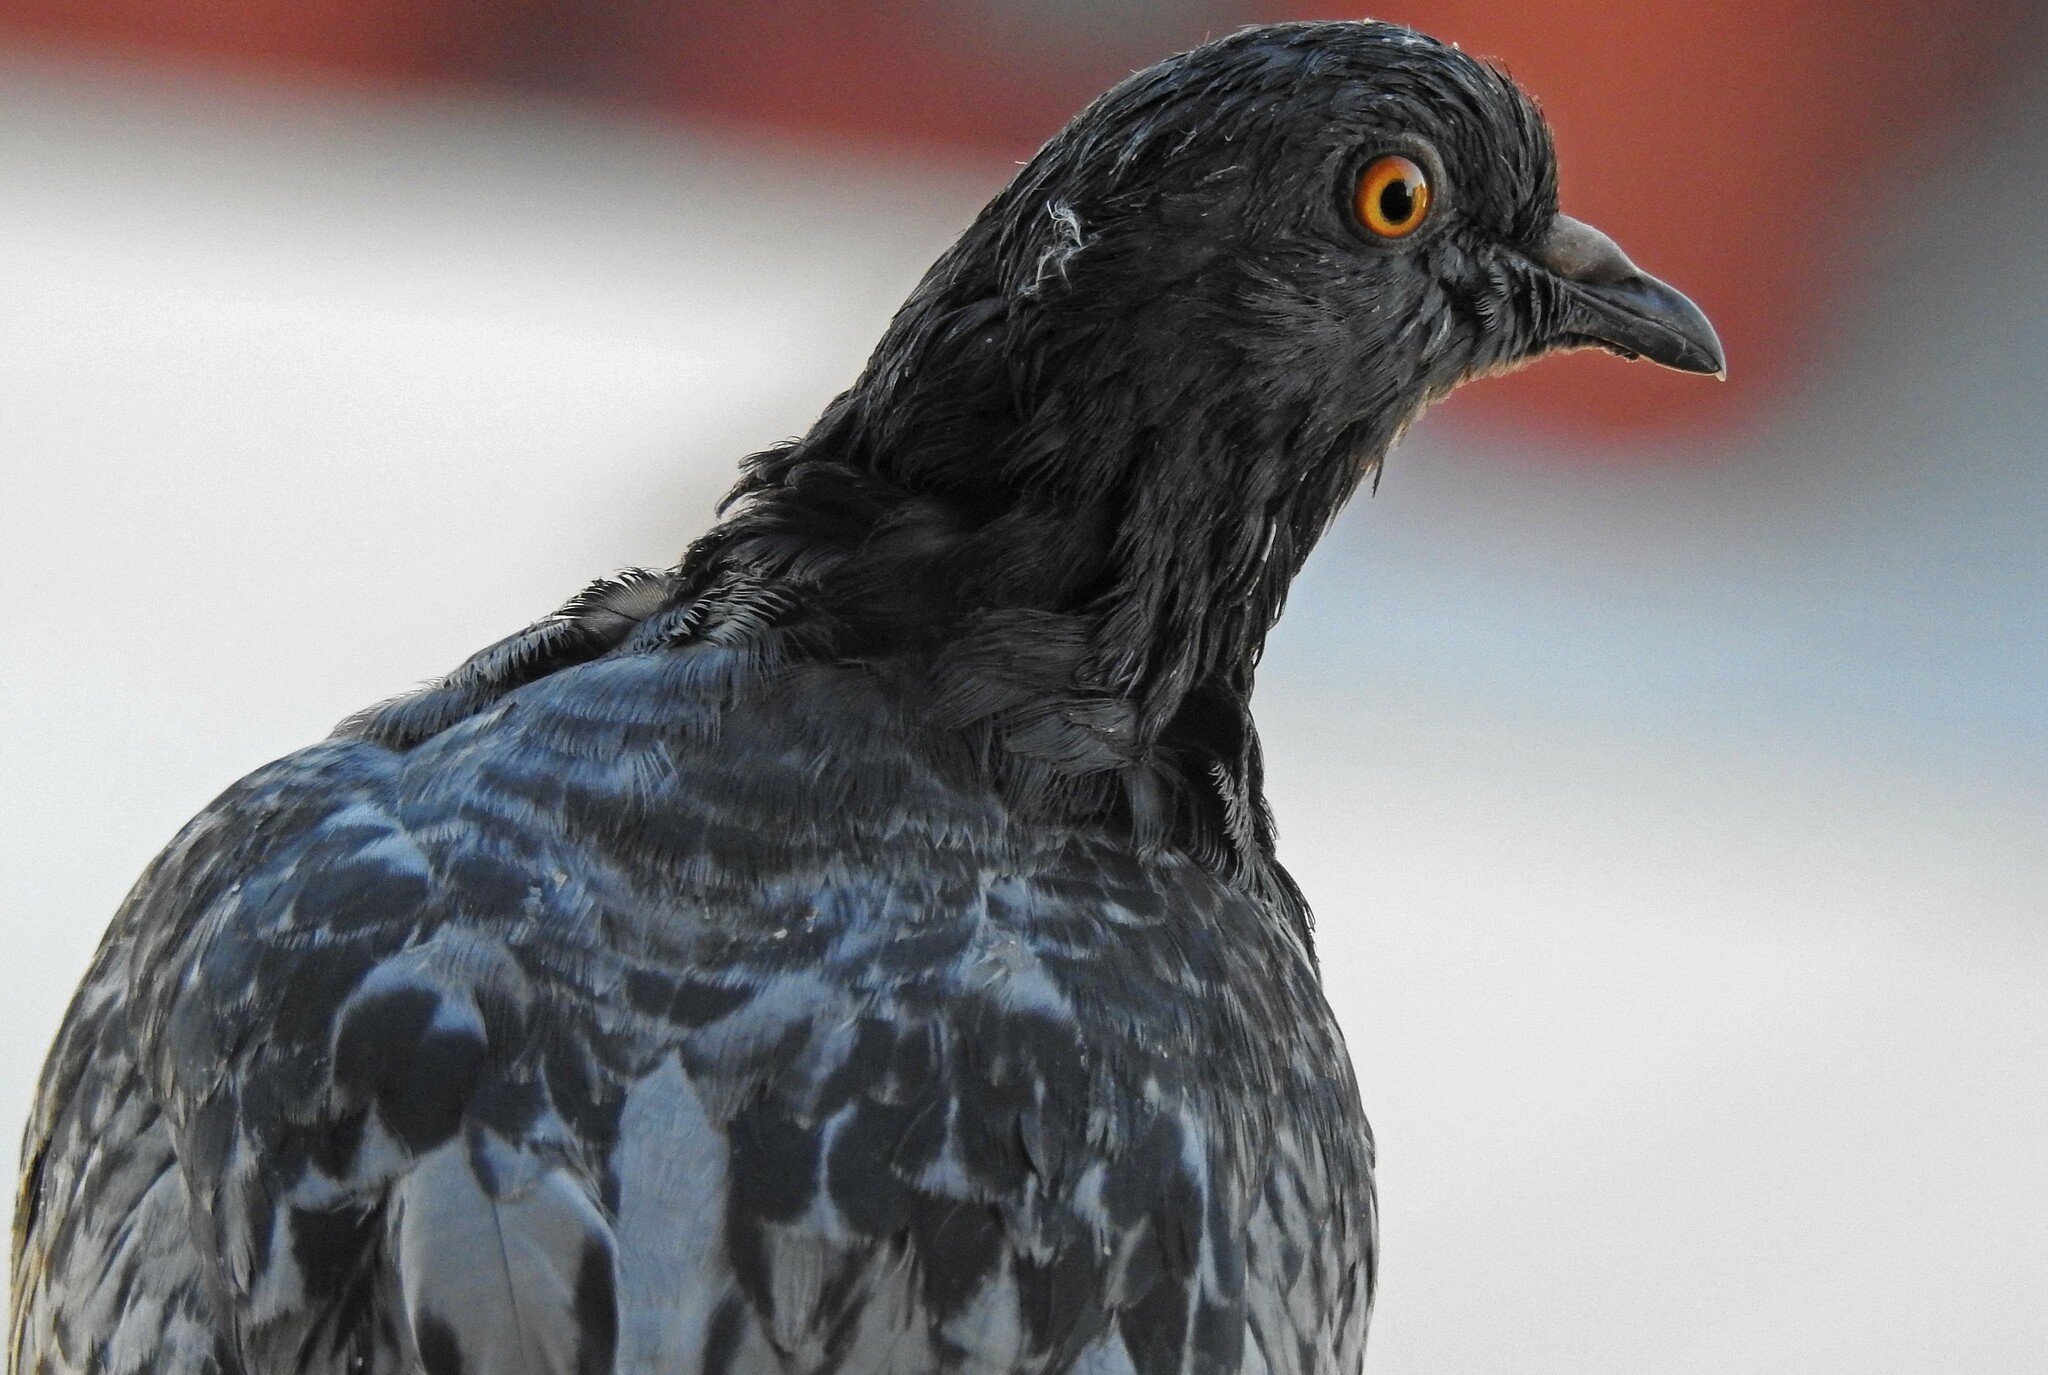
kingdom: Animalia
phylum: Chordata
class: Aves
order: Columbiformes
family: Columbidae
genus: Columba
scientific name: Columba livia
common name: Rock pigeon
